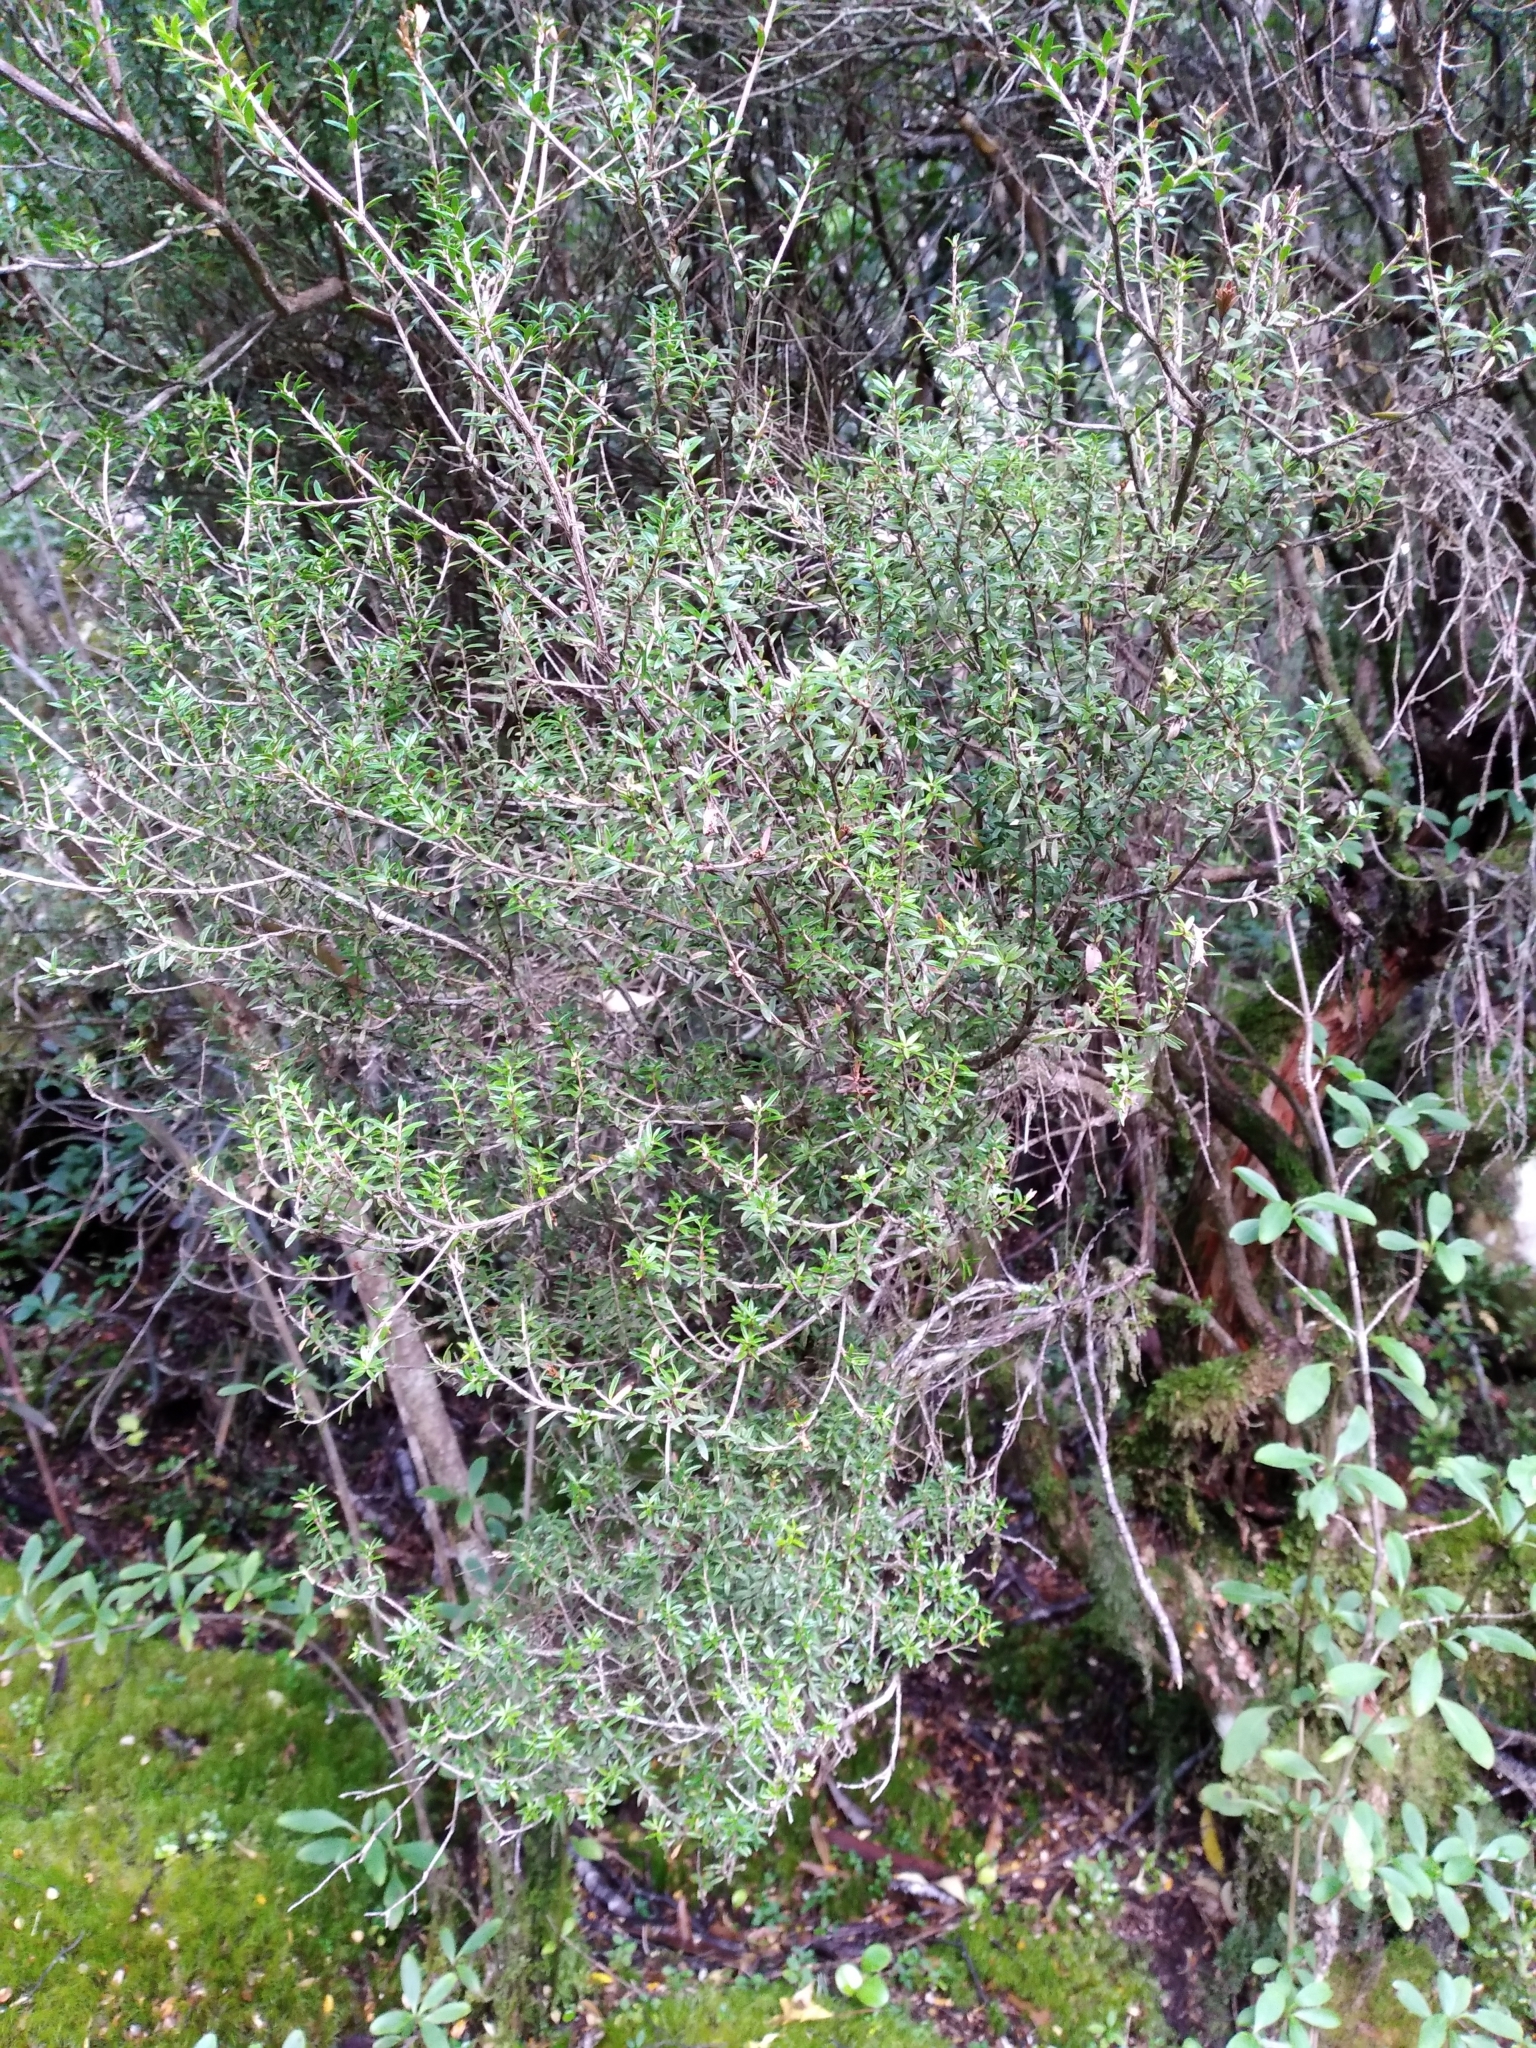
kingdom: Plantae
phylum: Tracheophyta
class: Magnoliopsida
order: Ericales
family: Ericaceae
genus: Archeria
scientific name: Archeria traversii
